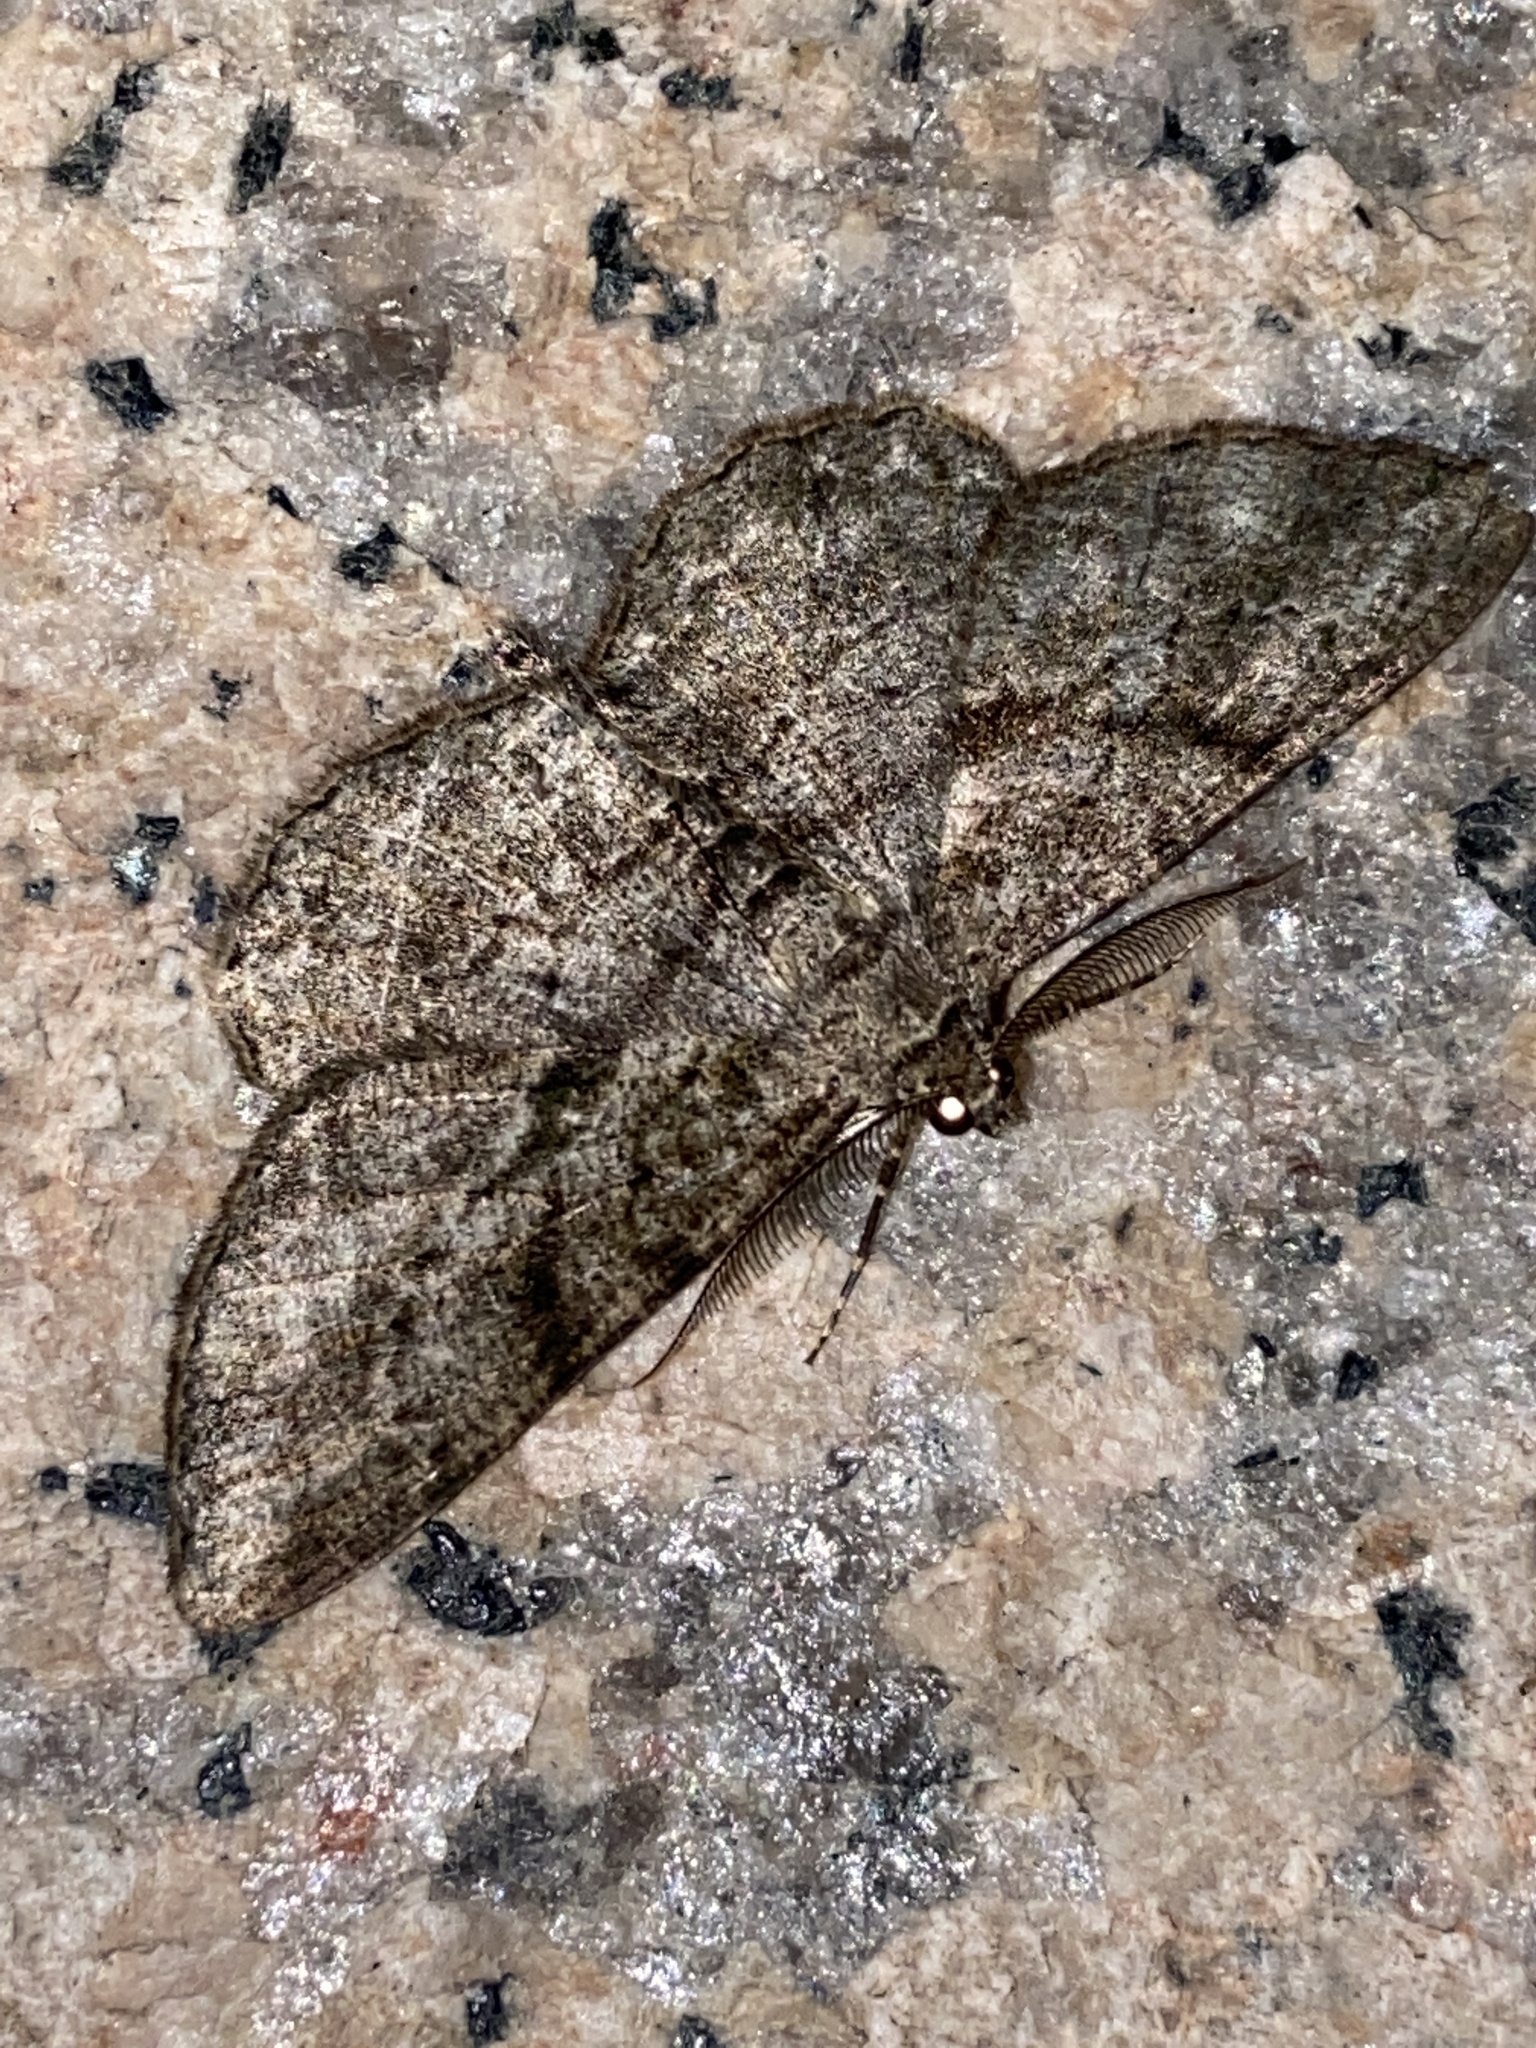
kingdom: Animalia
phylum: Arthropoda
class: Insecta
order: Lepidoptera
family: Geometridae
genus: Peribatodes
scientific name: Peribatodes rhomboidaria
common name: Willow beauty
